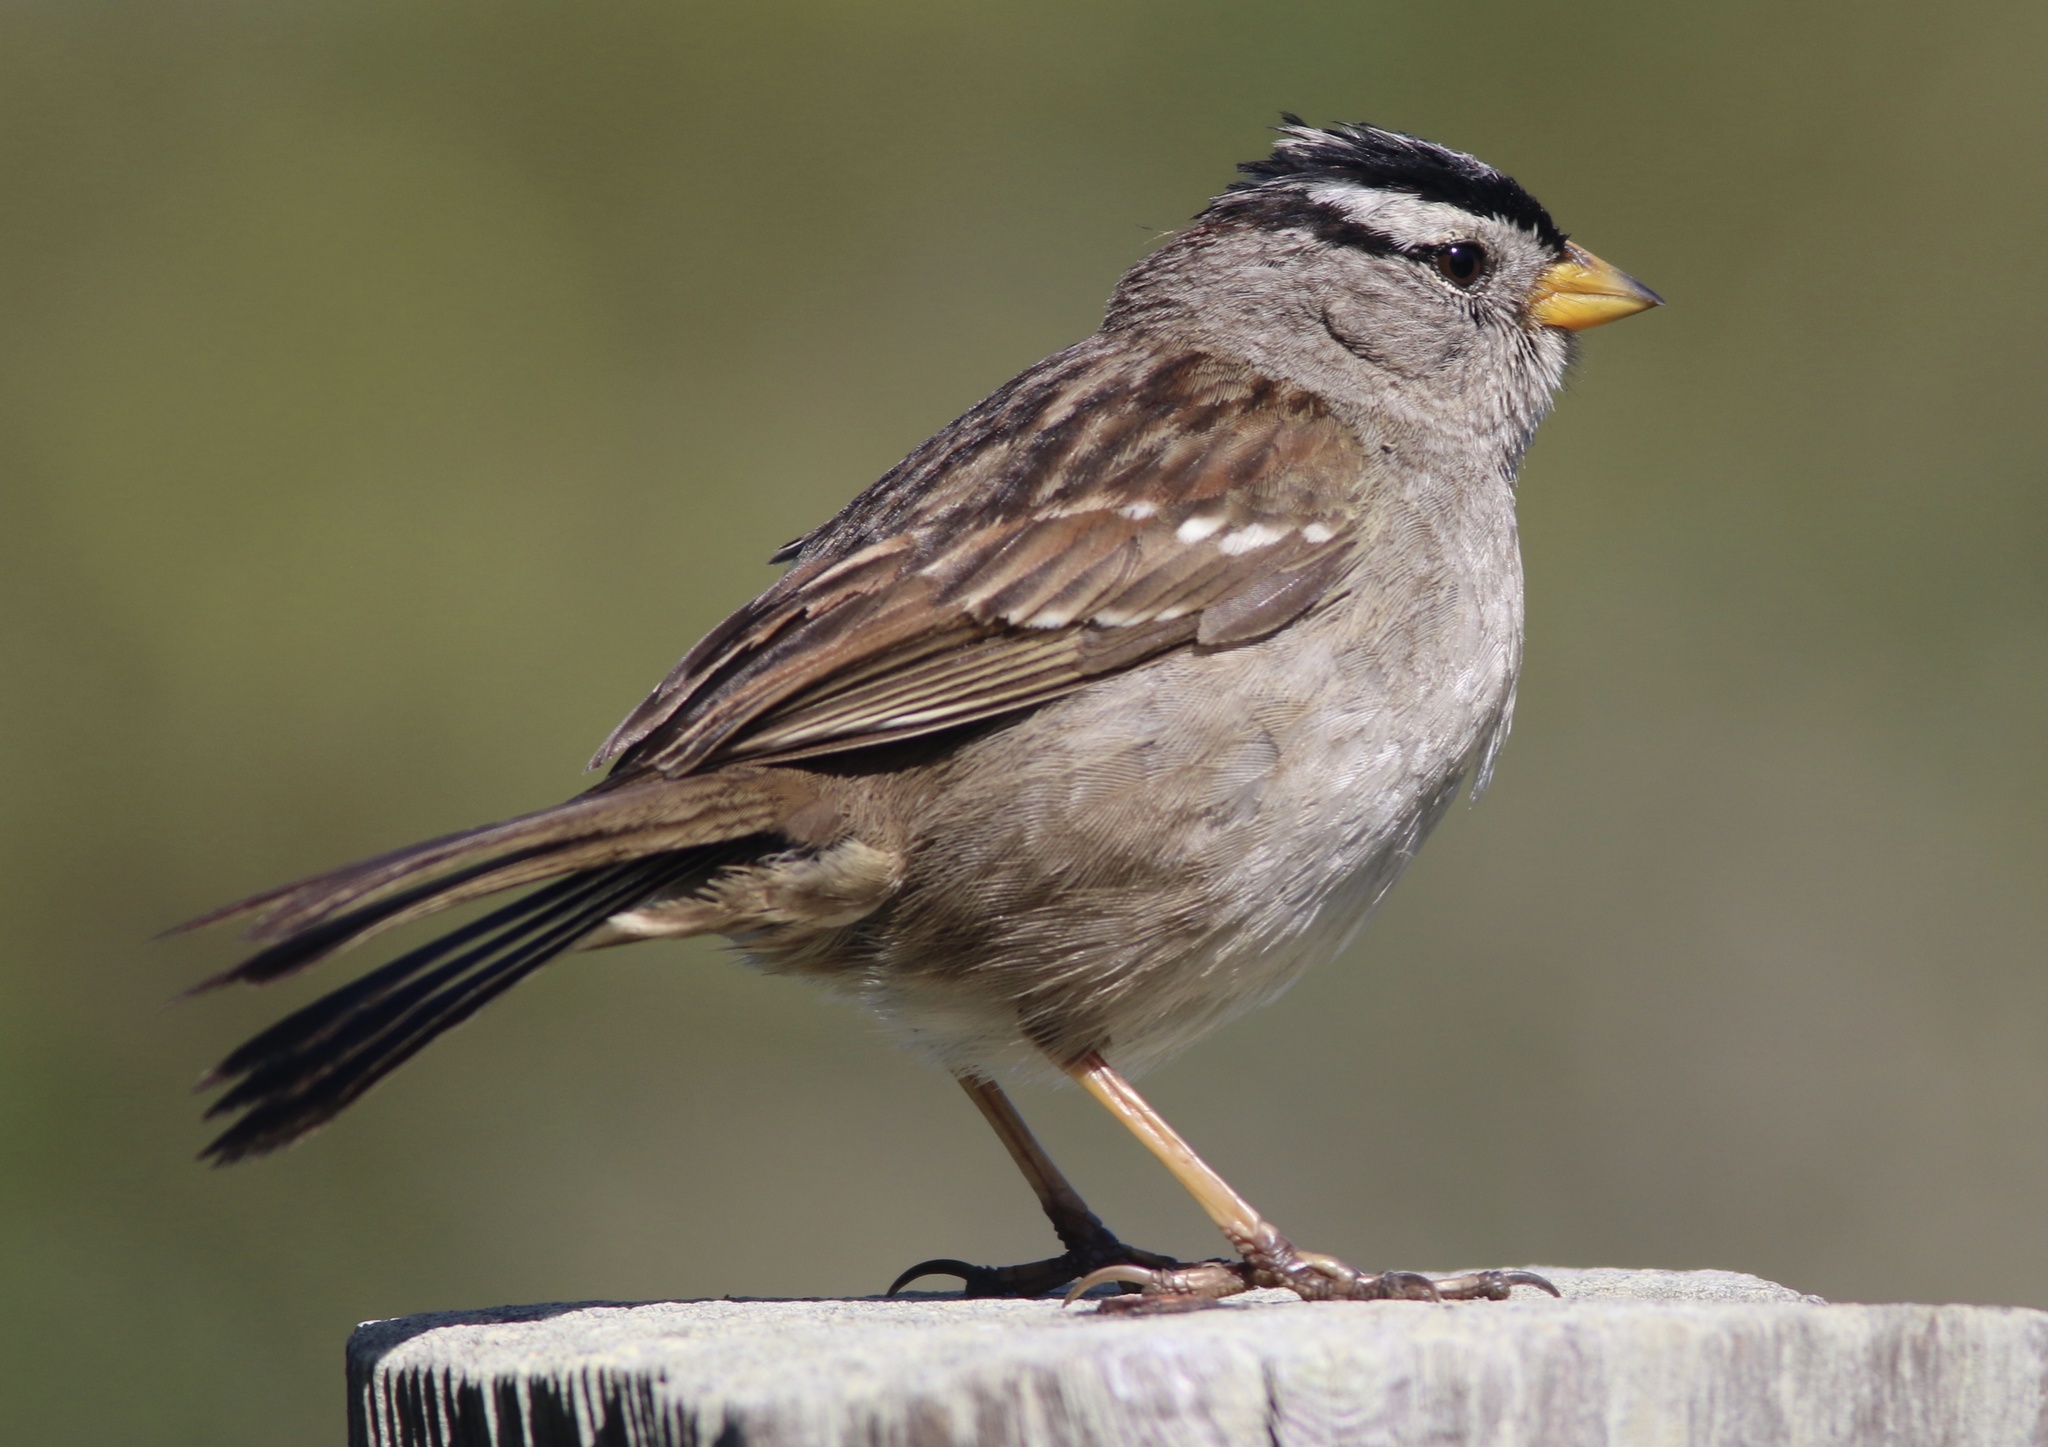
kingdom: Animalia
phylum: Chordata
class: Aves
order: Passeriformes
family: Passerellidae
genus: Zonotrichia
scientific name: Zonotrichia leucophrys
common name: White-crowned sparrow
